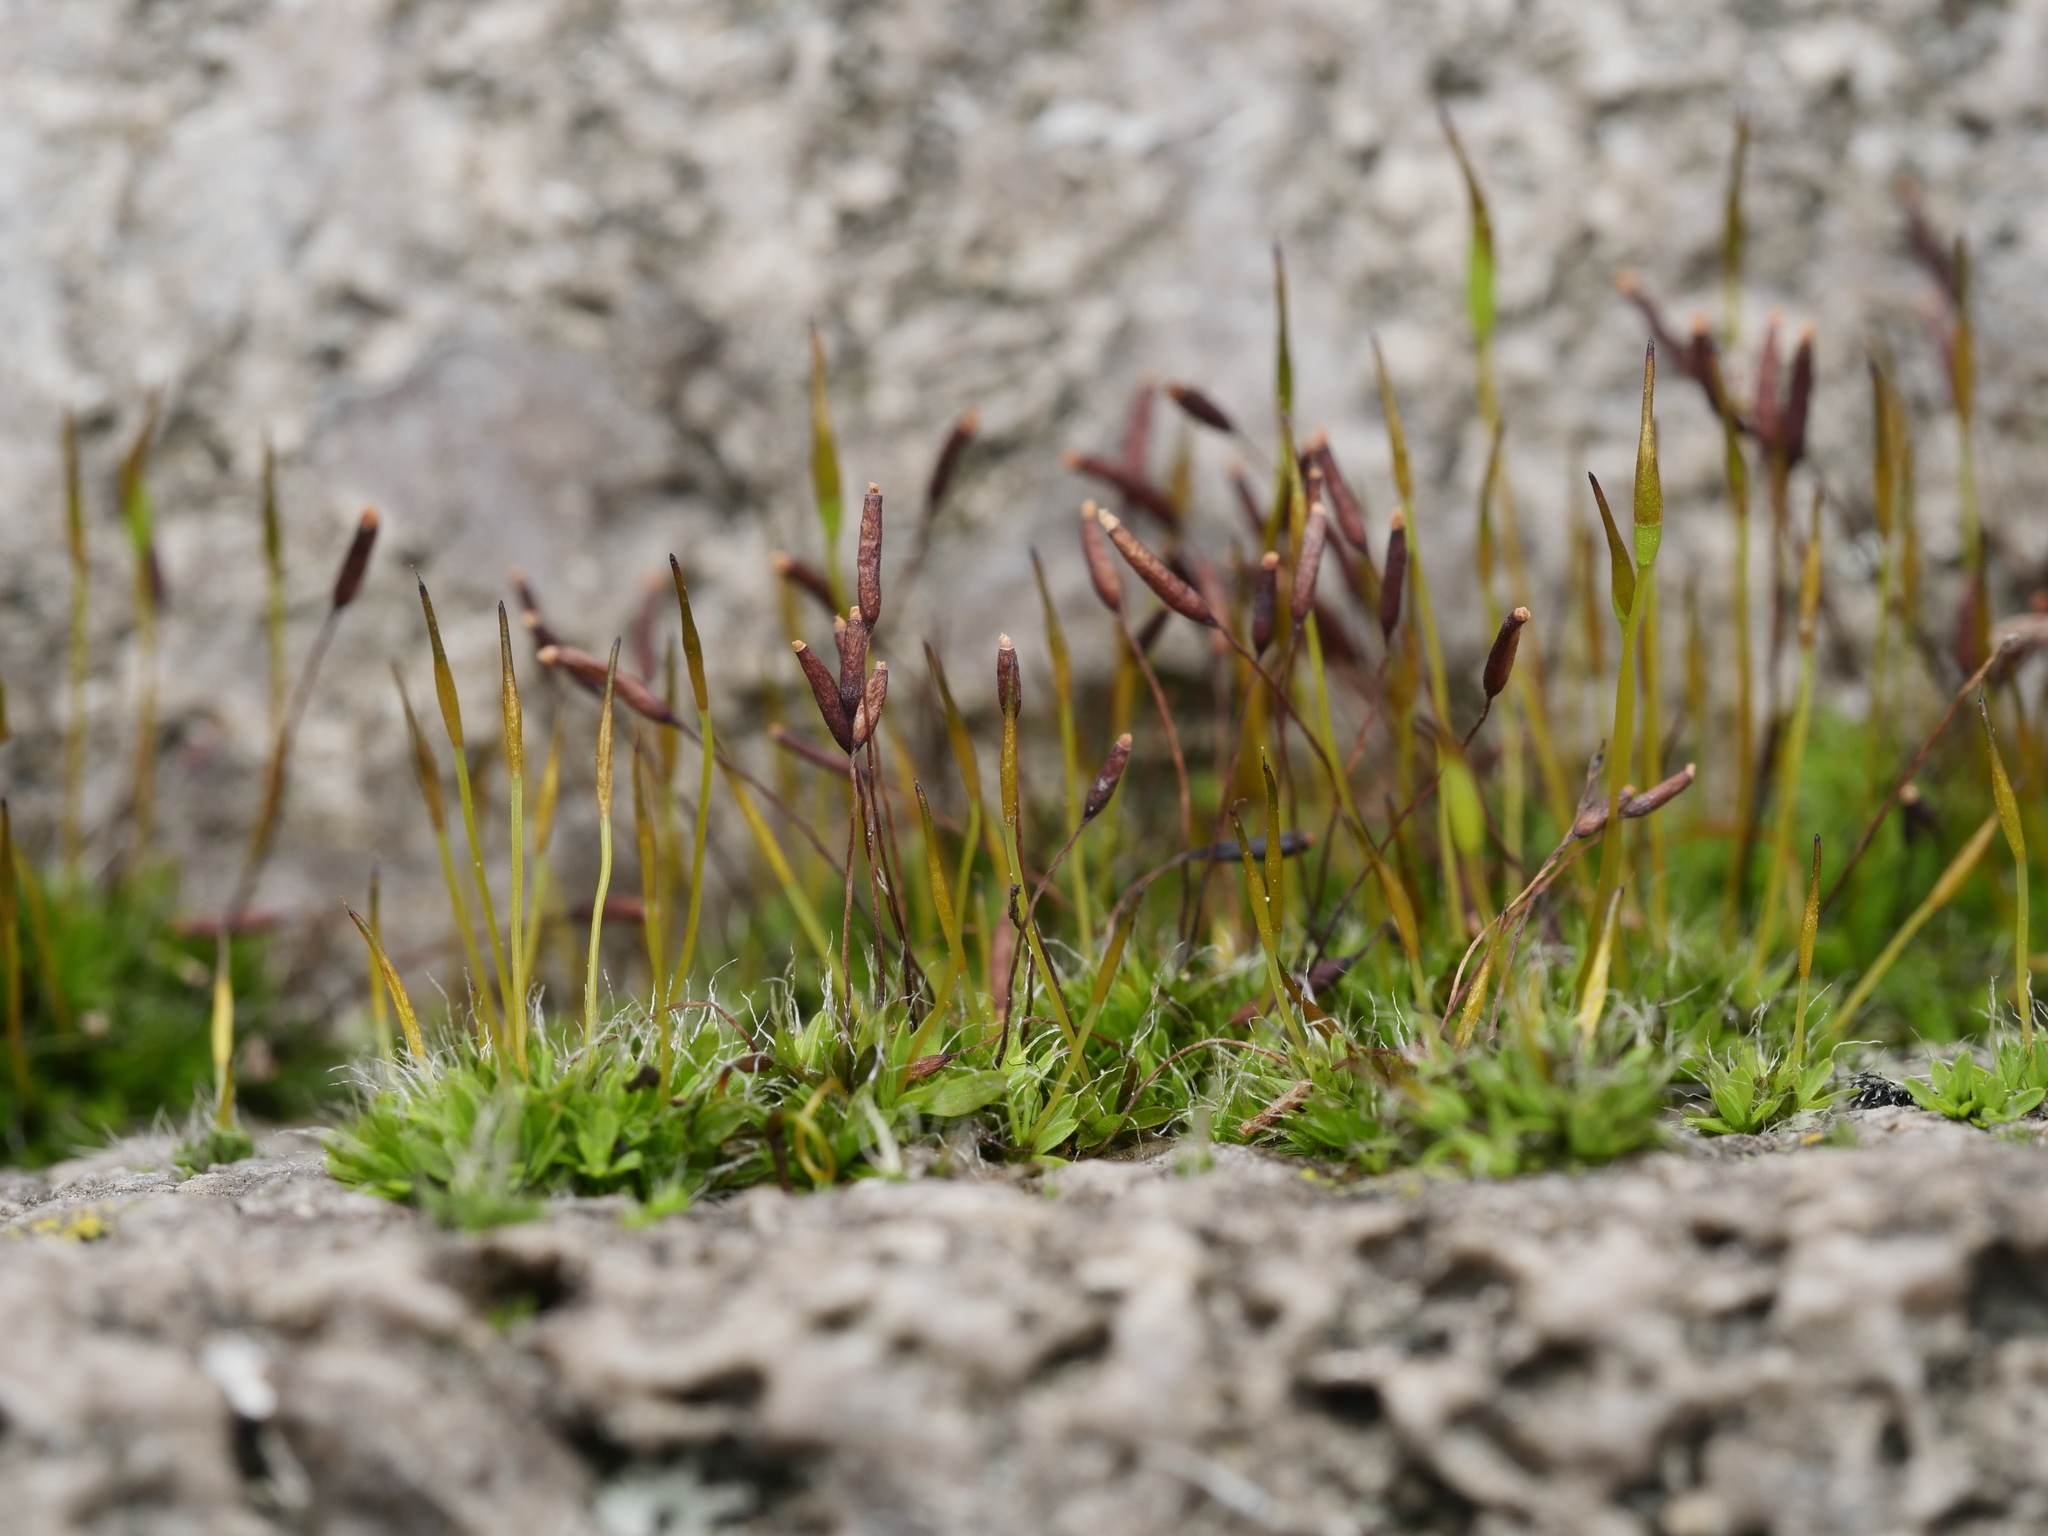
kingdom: Plantae
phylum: Bryophyta
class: Bryopsida
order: Pottiales
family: Pottiaceae
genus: Tortula
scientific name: Tortula muralis
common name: Wall screw-moss
